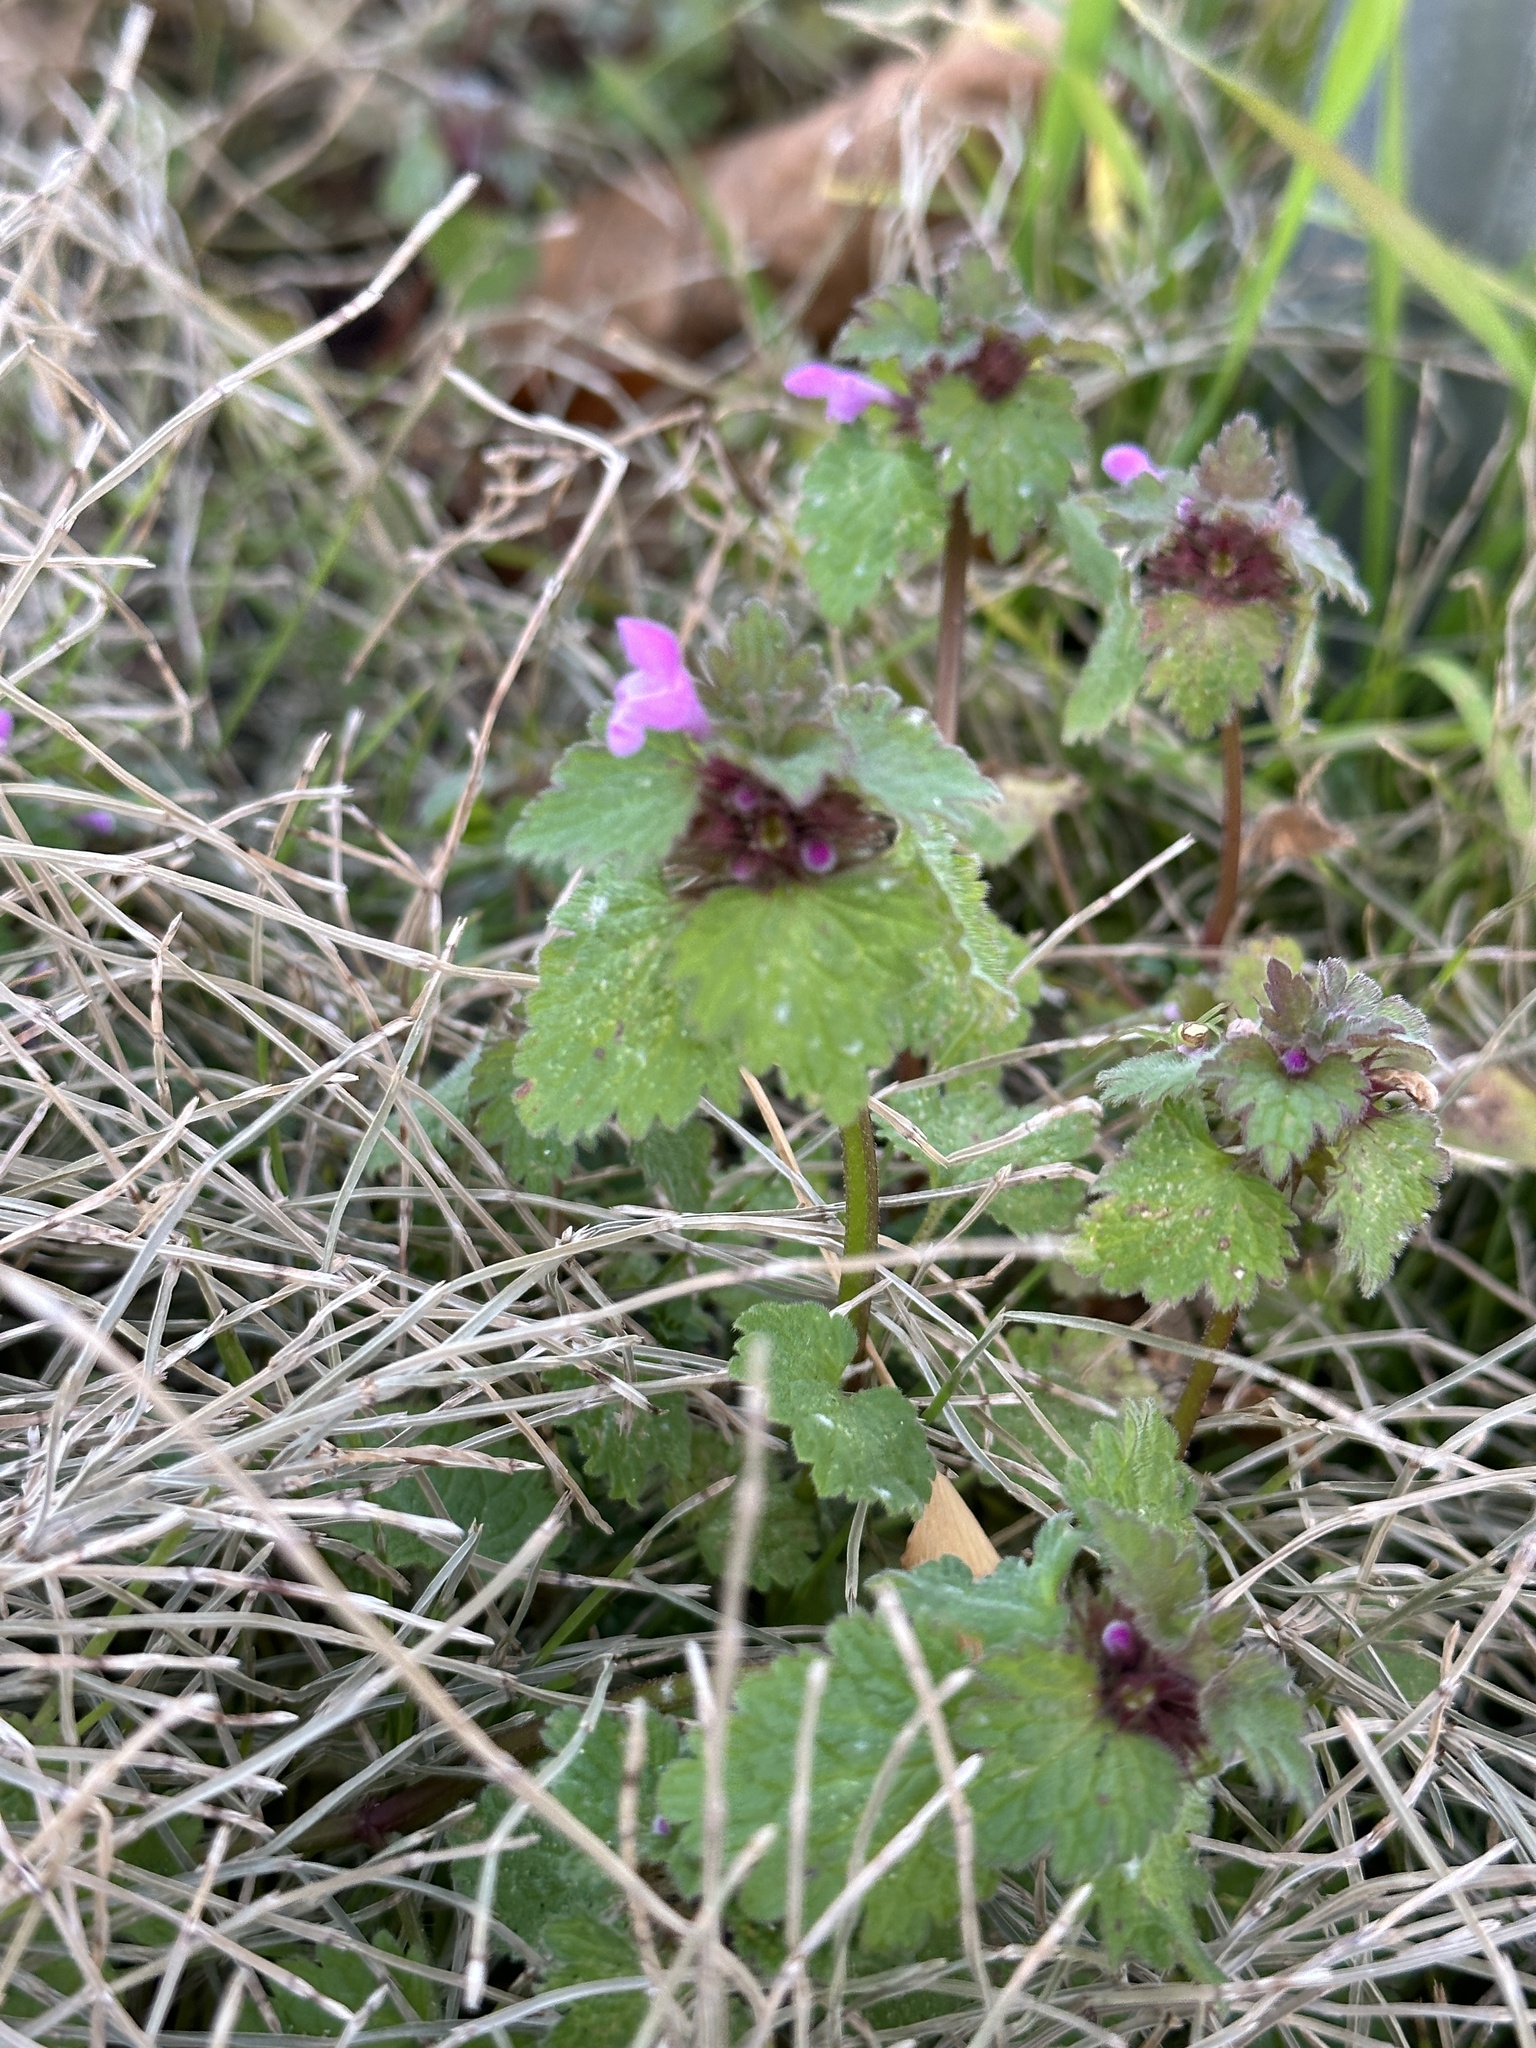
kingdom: Plantae
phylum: Tracheophyta
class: Magnoliopsida
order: Lamiales
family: Lamiaceae
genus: Lamium
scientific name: Lamium purpureum
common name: Red dead-nettle
